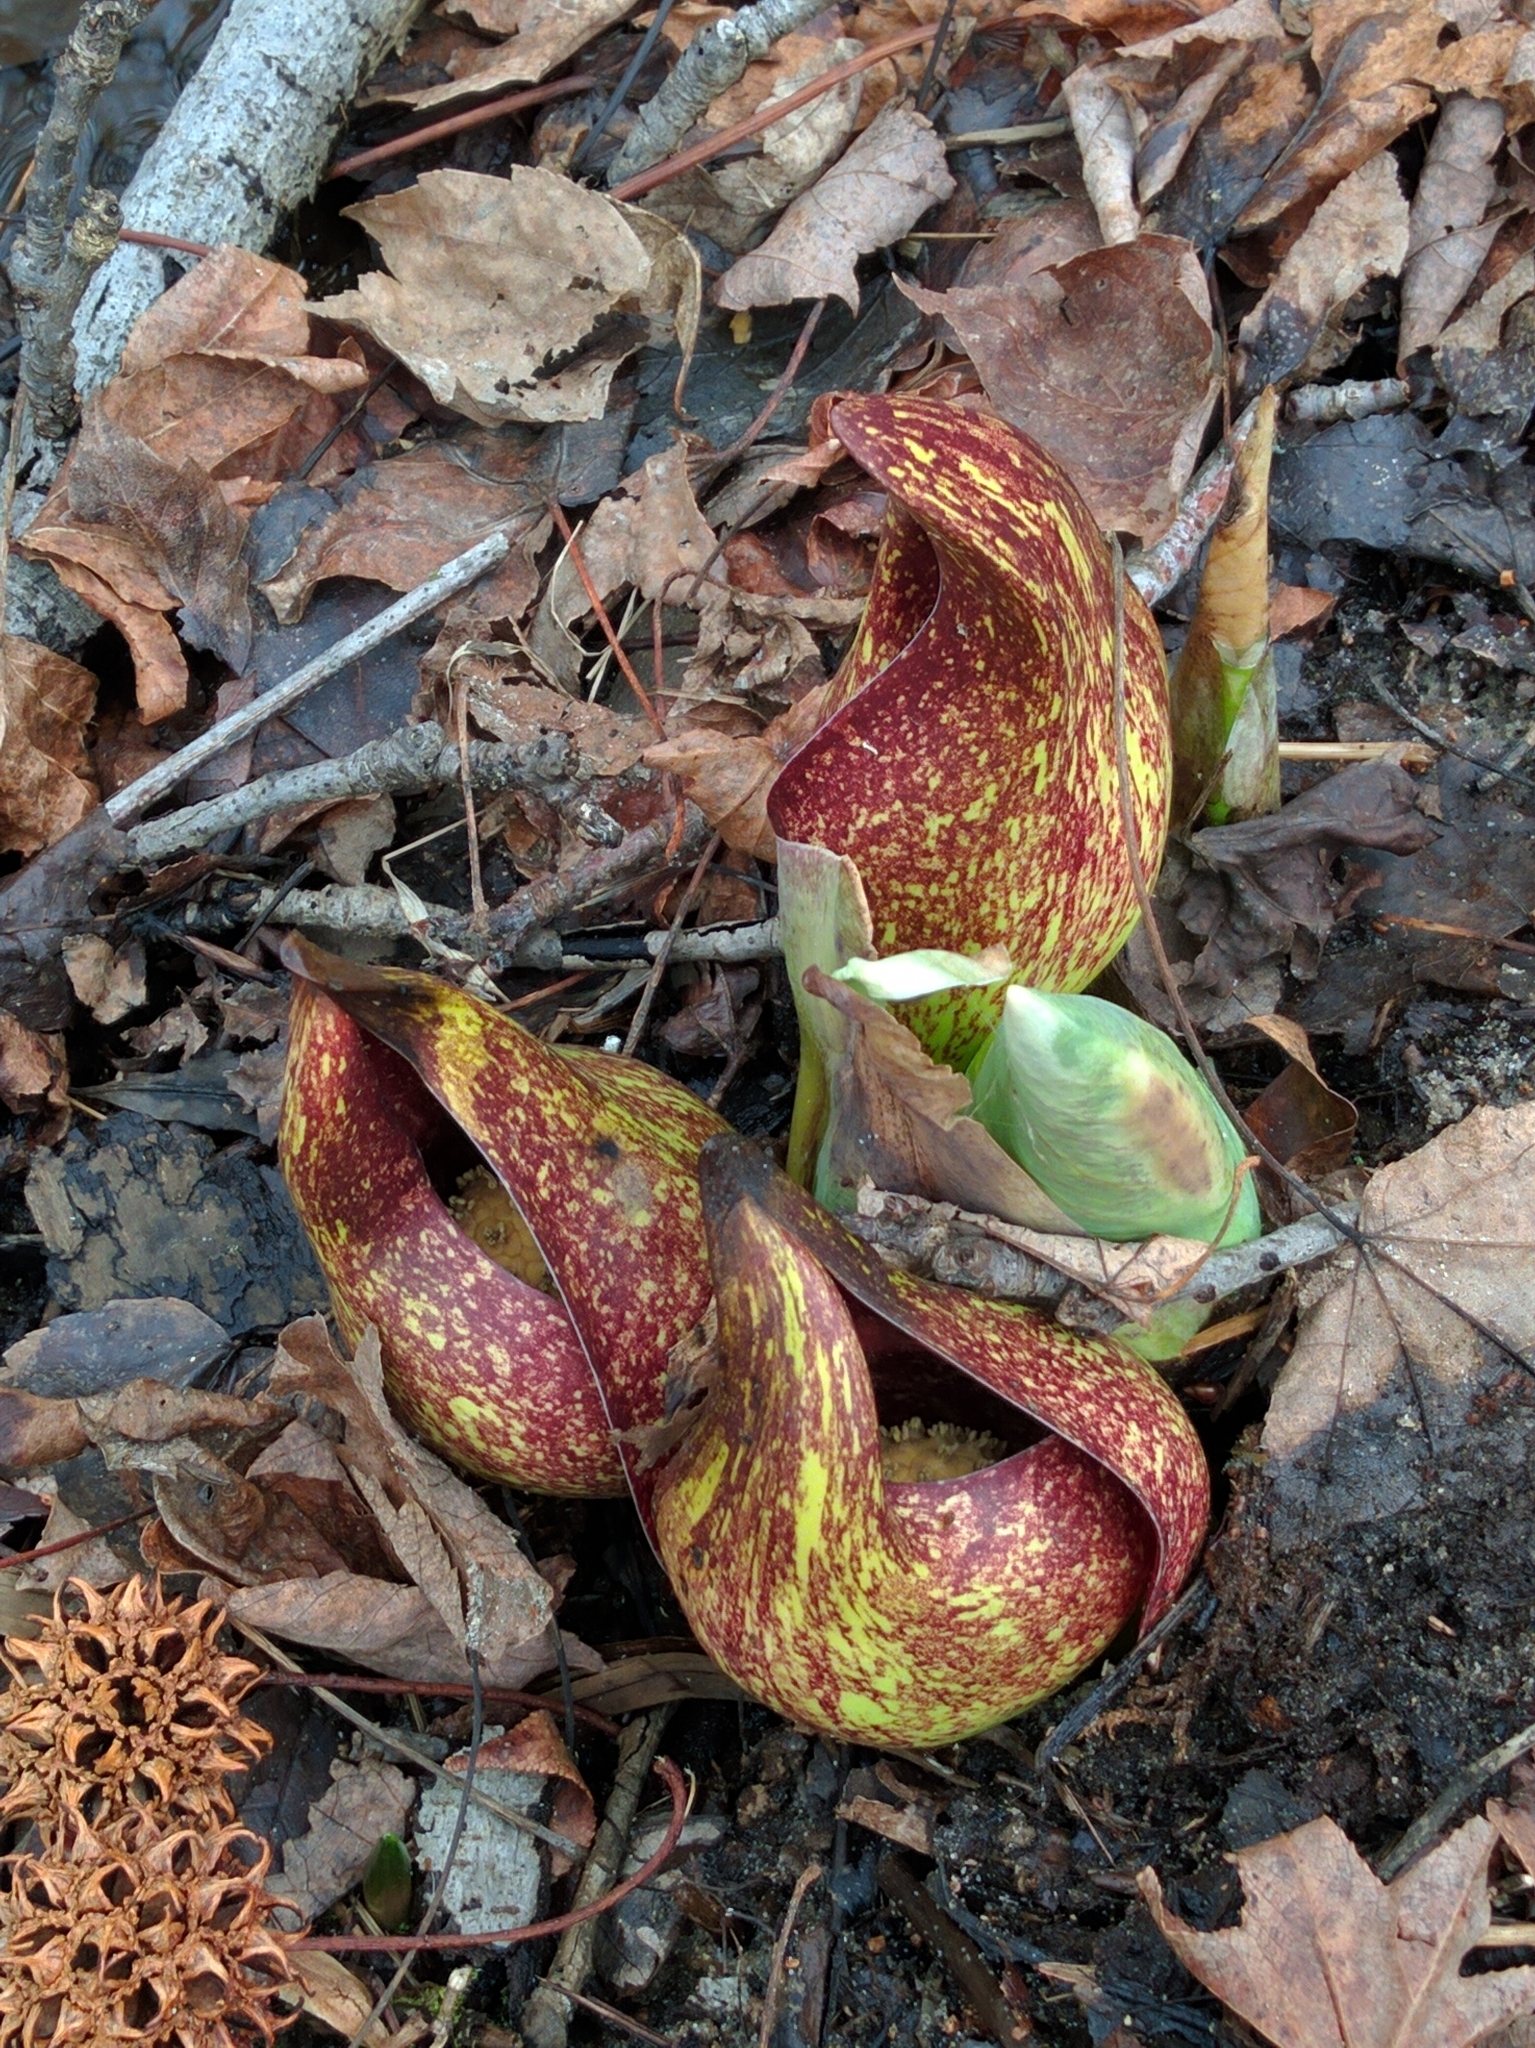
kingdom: Plantae
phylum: Tracheophyta
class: Liliopsida
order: Alismatales
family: Araceae
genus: Symplocarpus
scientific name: Symplocarpus foetidus
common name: Eastern skunk cabbage
